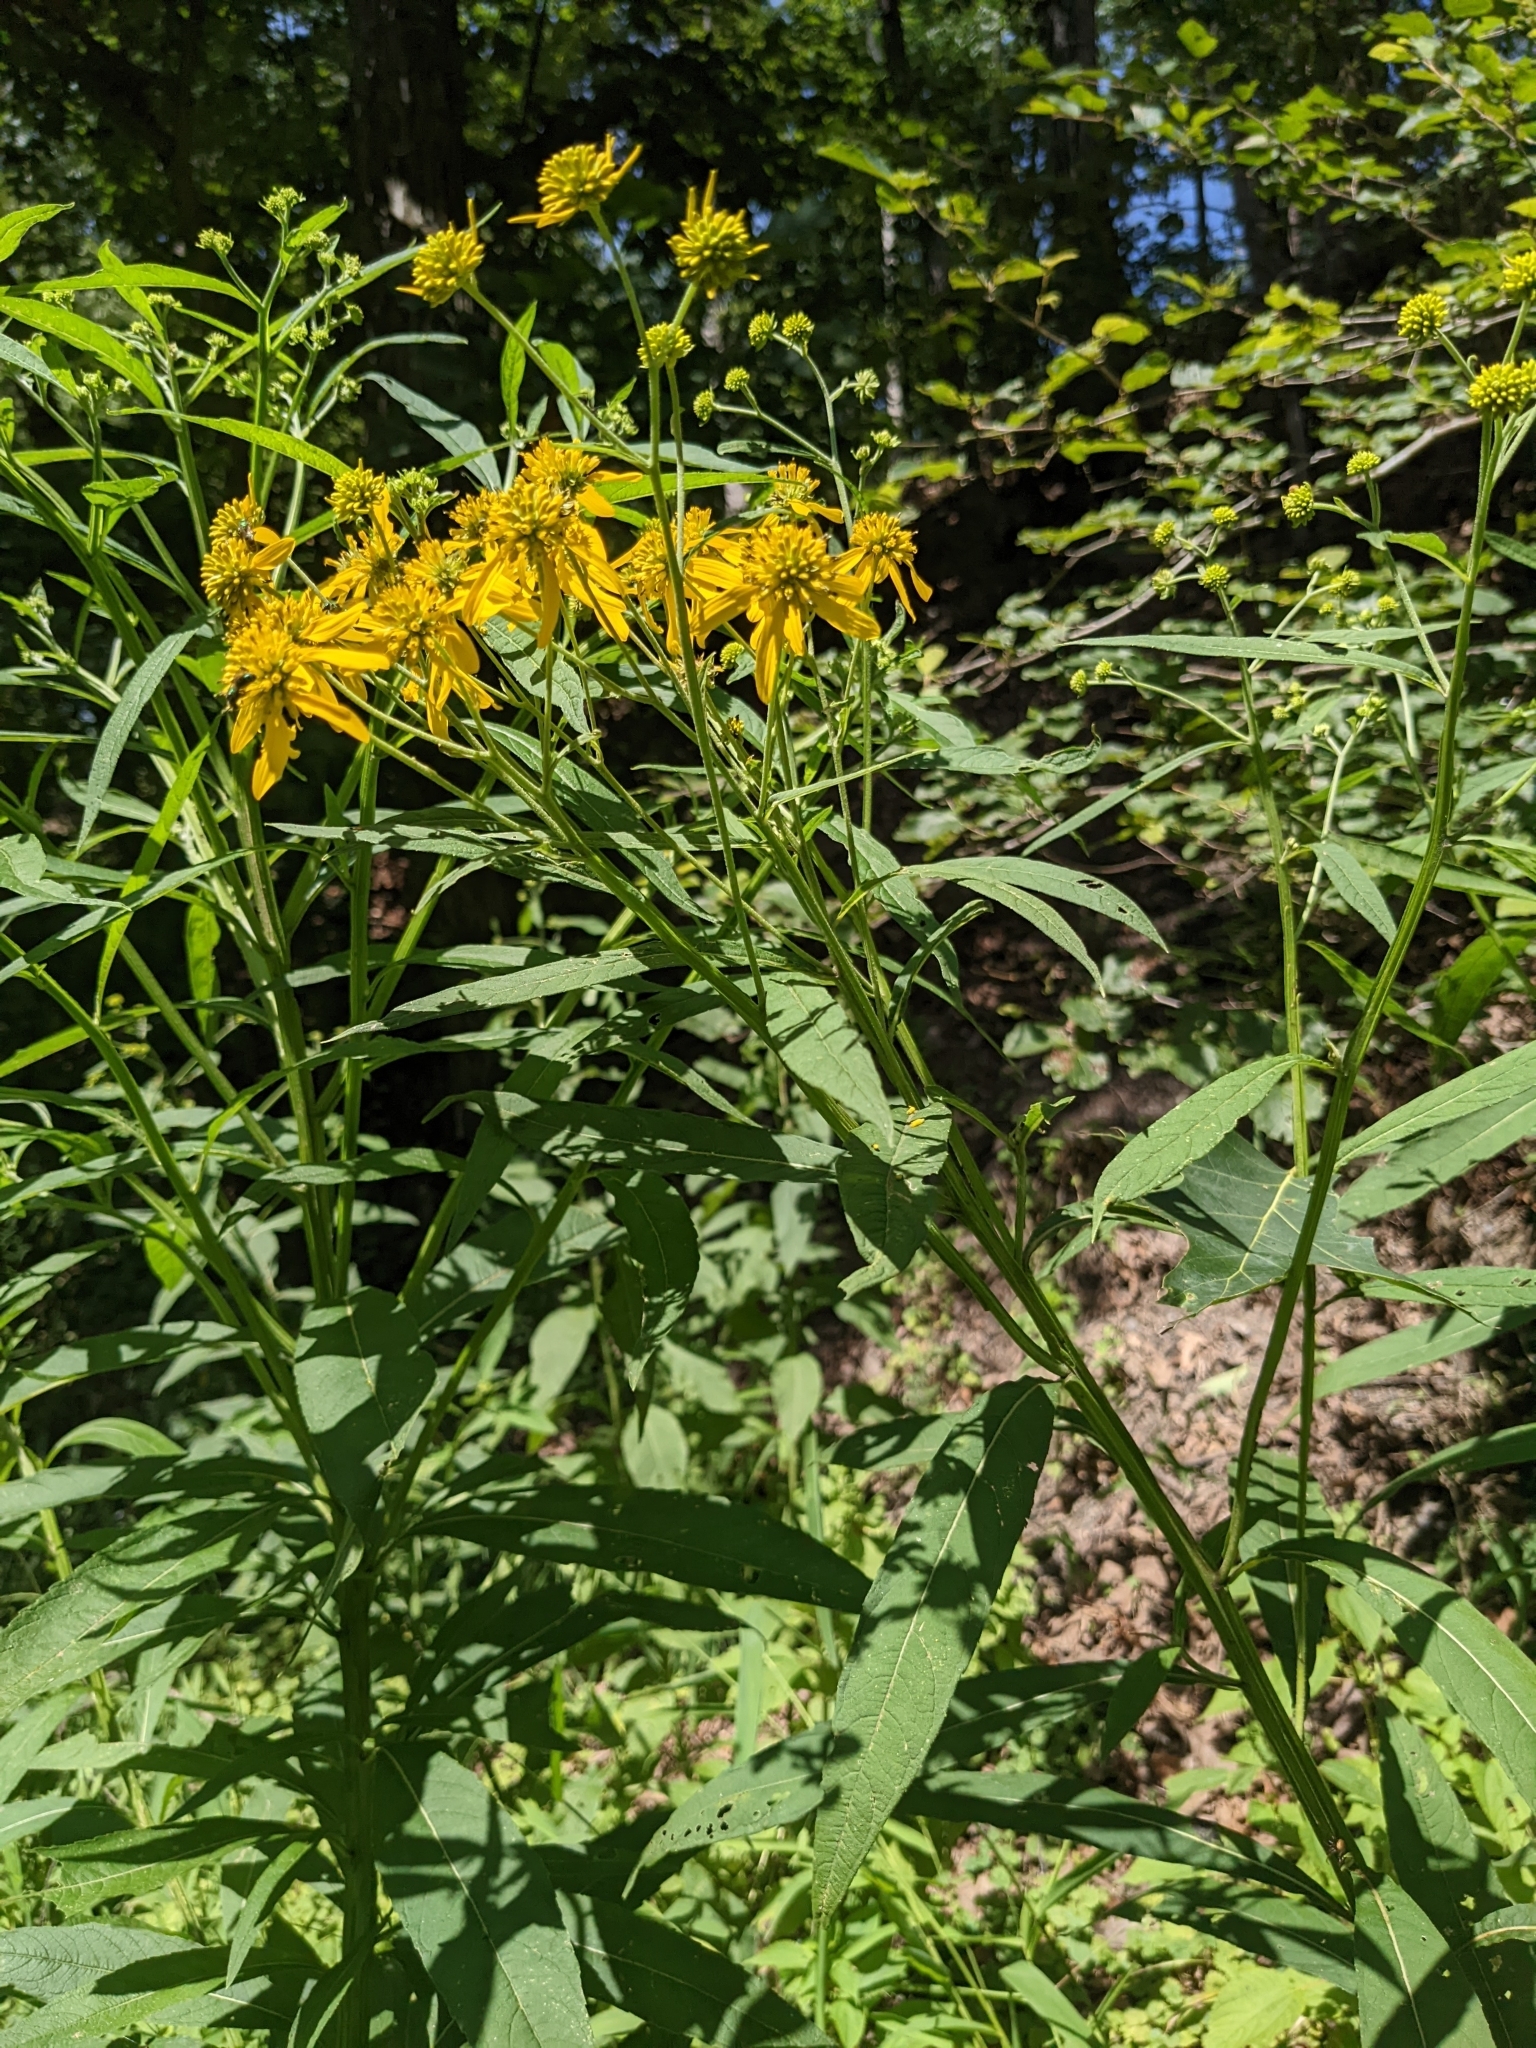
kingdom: Plantae
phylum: Tracheophyta
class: Magnoliopsida
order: Asterales
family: Asteraceae
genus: Verbesina
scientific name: Verbesina alternifolia
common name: Wingstem
